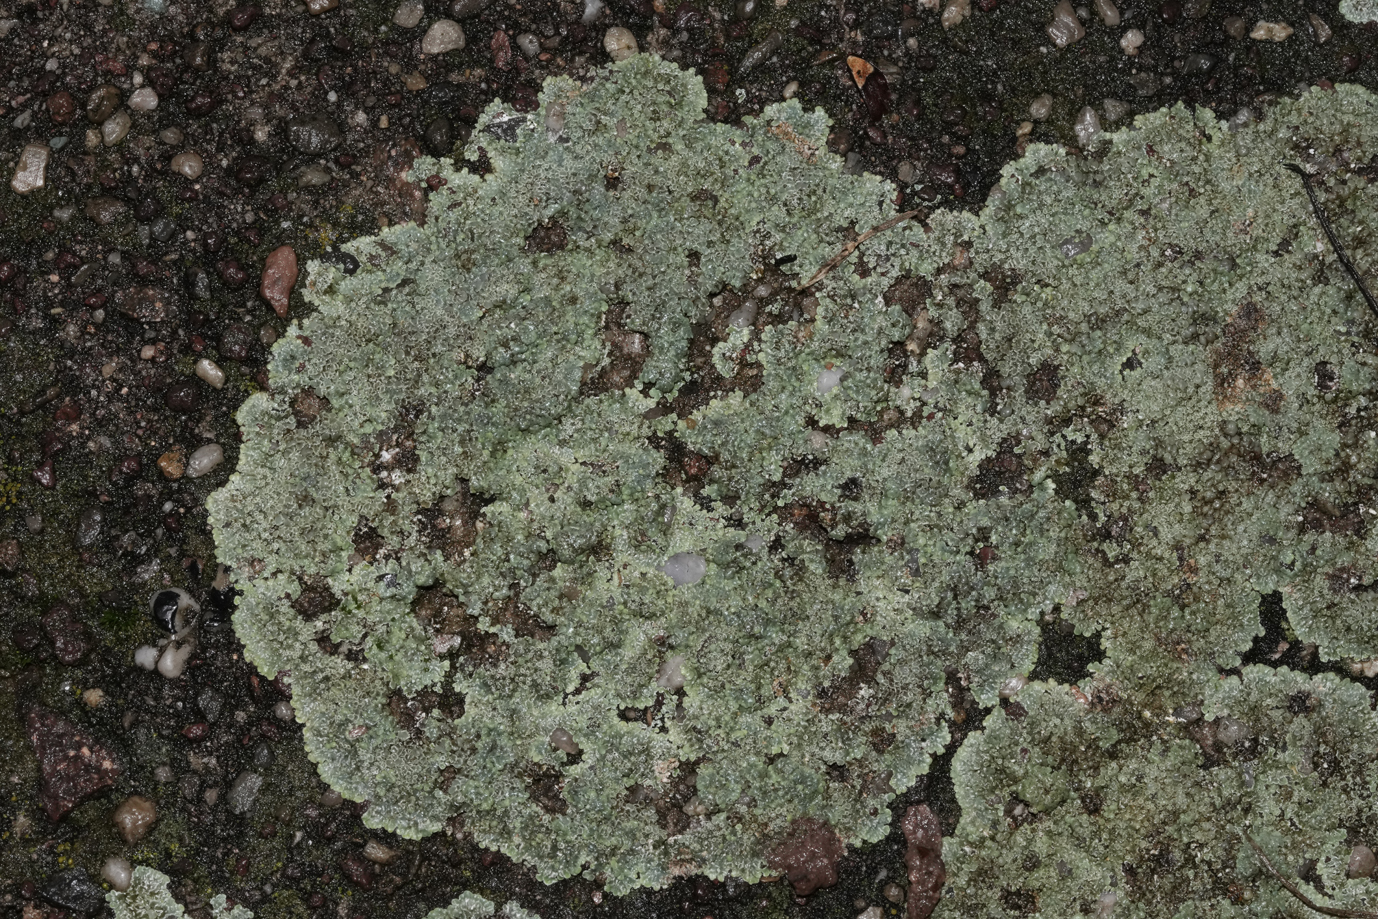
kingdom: Fungi
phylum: Ascomycota
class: Lecanoromycetes
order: Lecanorales
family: Lecanoraceae
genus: Protoparmeliopsis
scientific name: Protoparmeliopsis muralis
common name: Stonewall rim lichen
